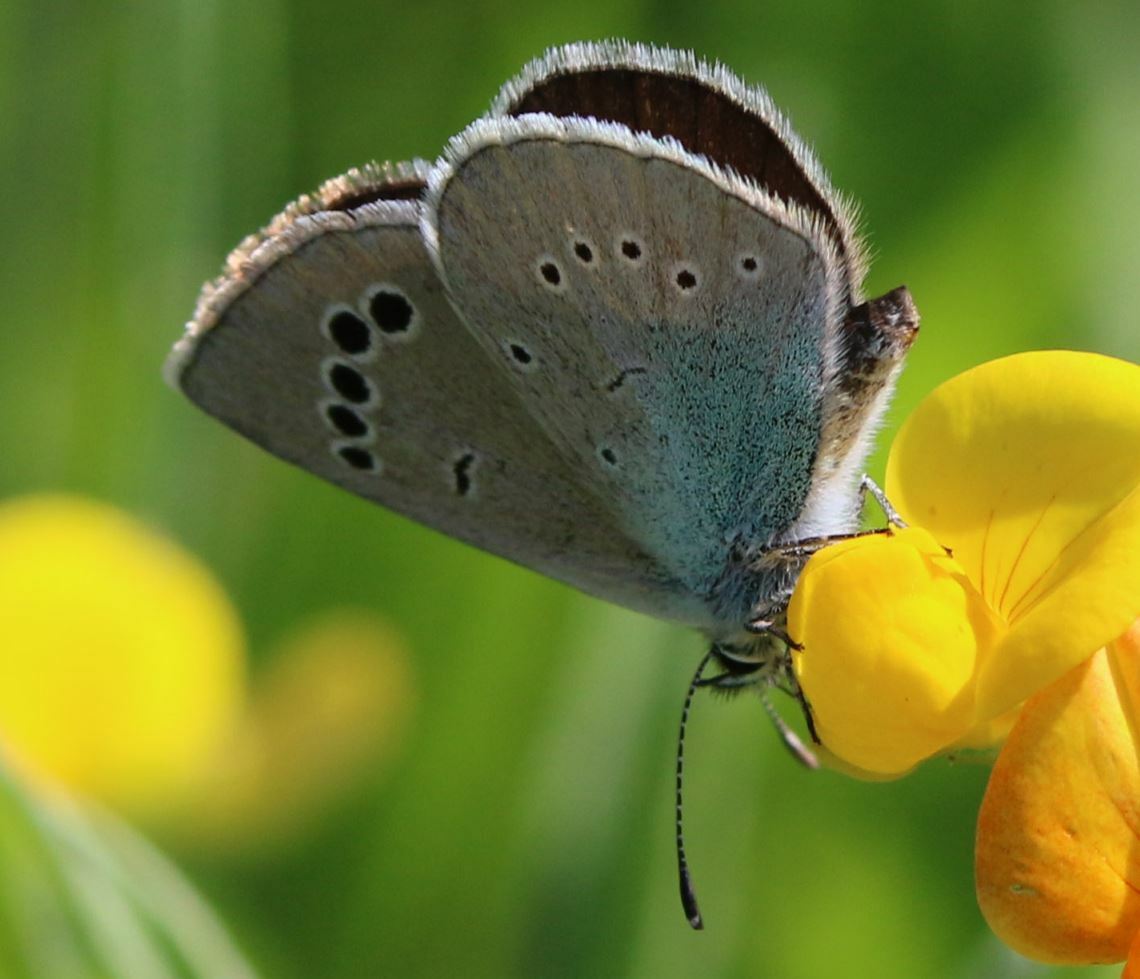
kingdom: Animalia
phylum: Arthropoda
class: Insecta
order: Lepidoptera
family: Lycaenidae
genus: Glaucopsyche
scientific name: Glaucopsyche alexis
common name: Green-underside blue
